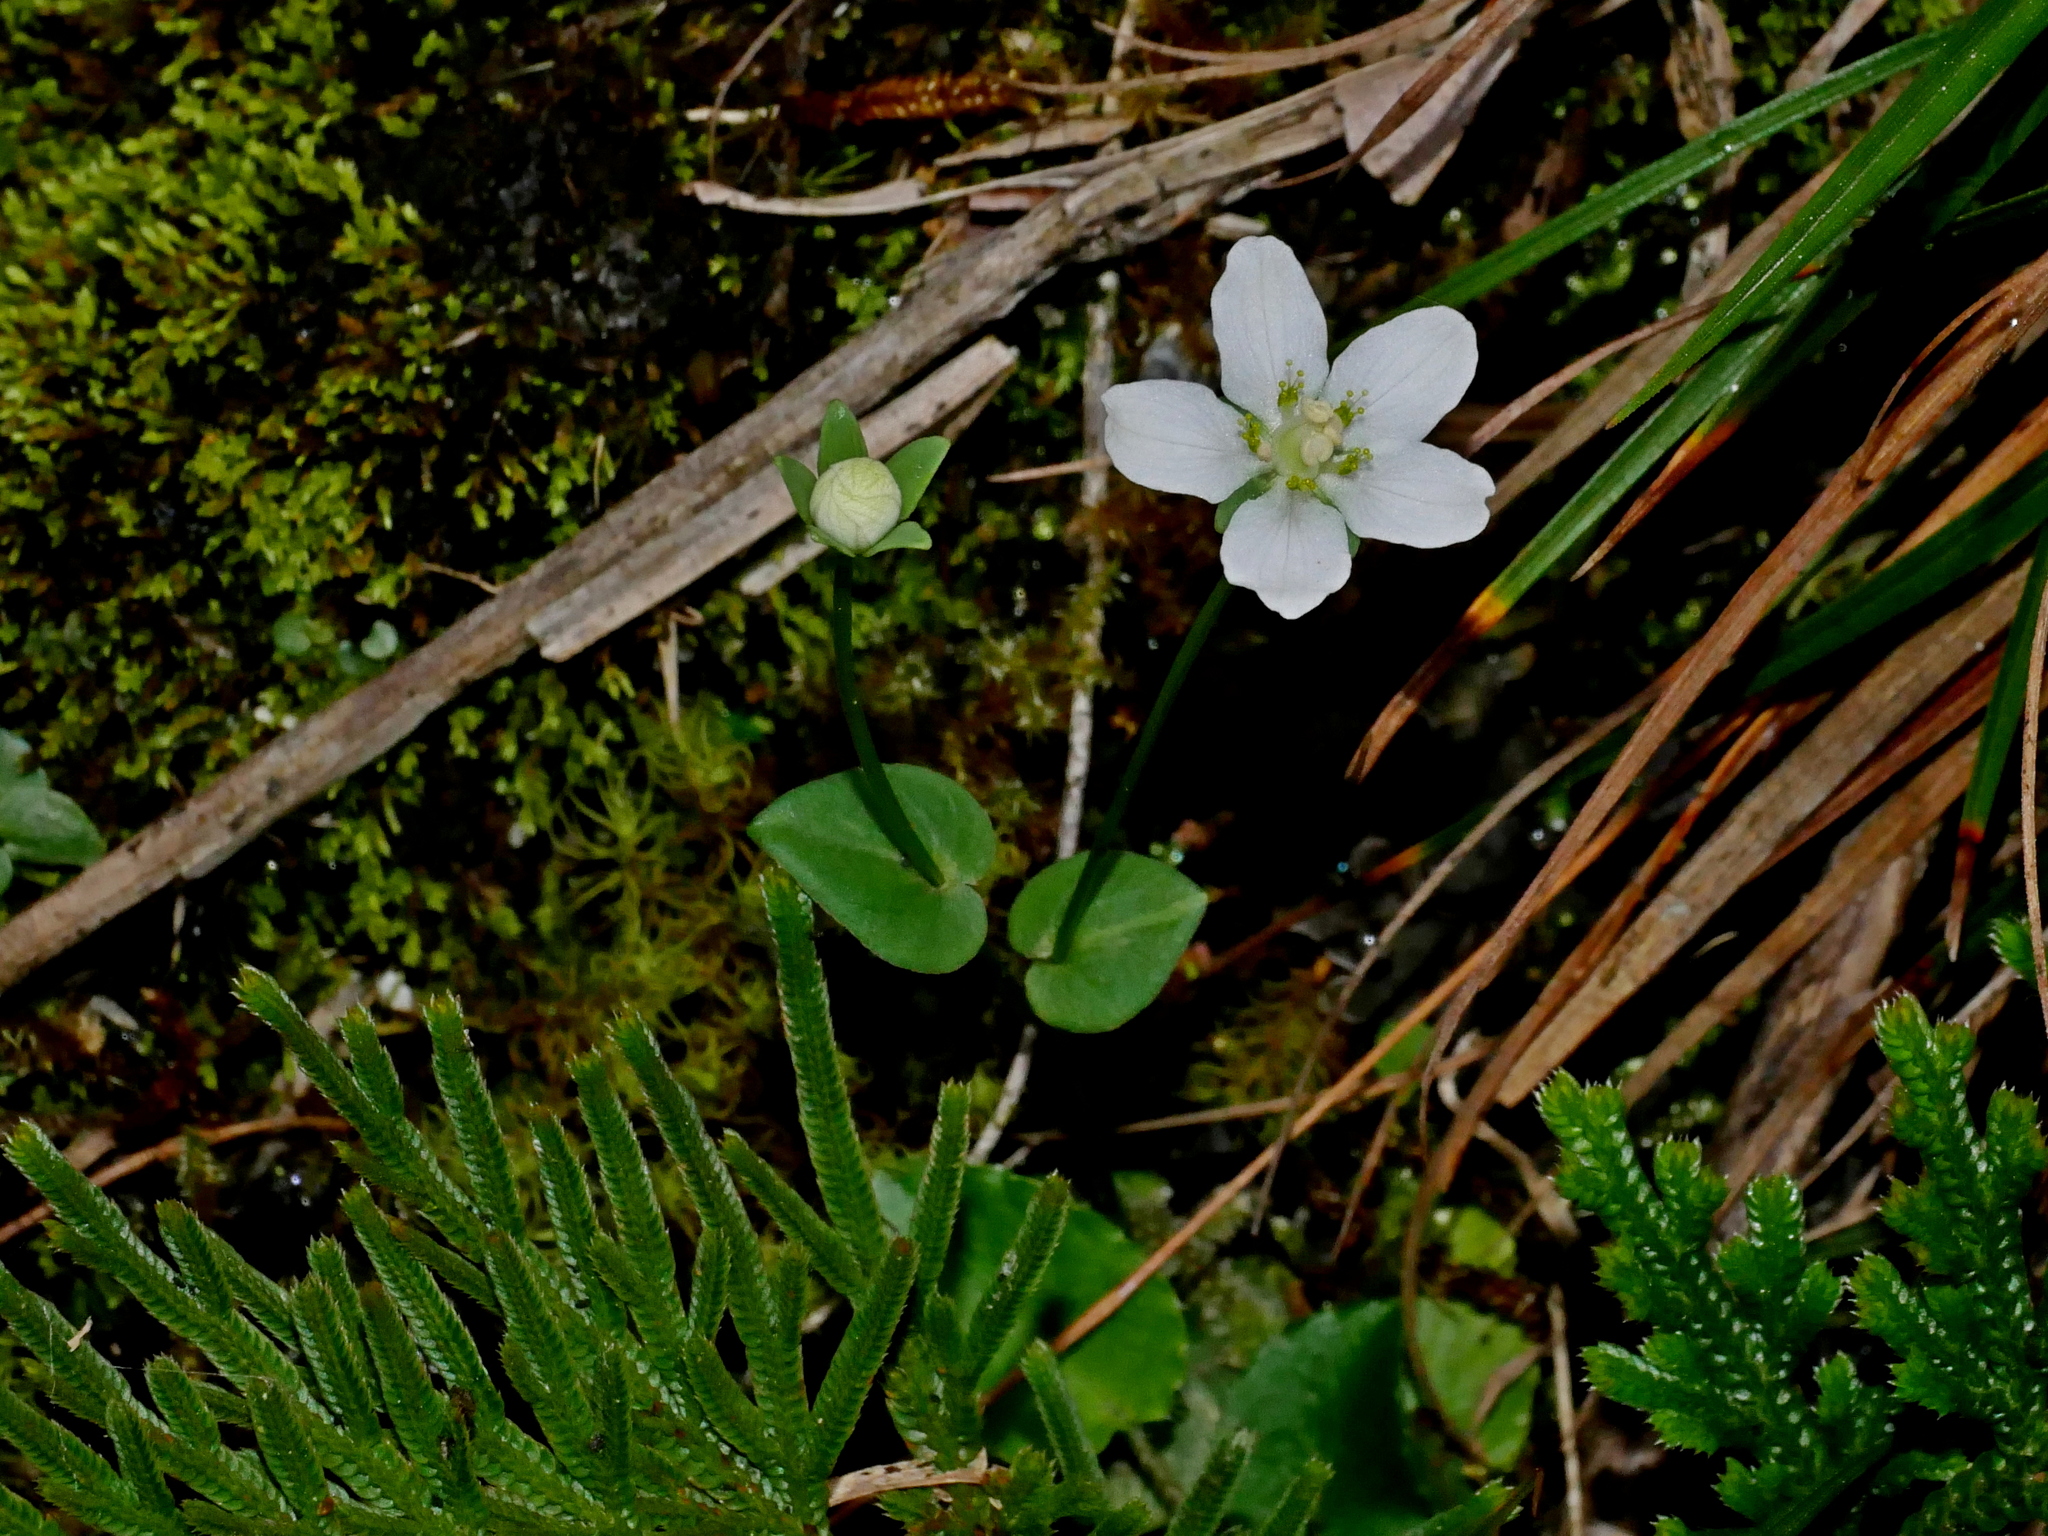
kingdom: Plantae
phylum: Tracheophyta
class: Magnoliopsida
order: Celastrales
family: Parnassiaceae
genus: Parnassia
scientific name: Parnassia palustris
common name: Grass-of-parnassus
